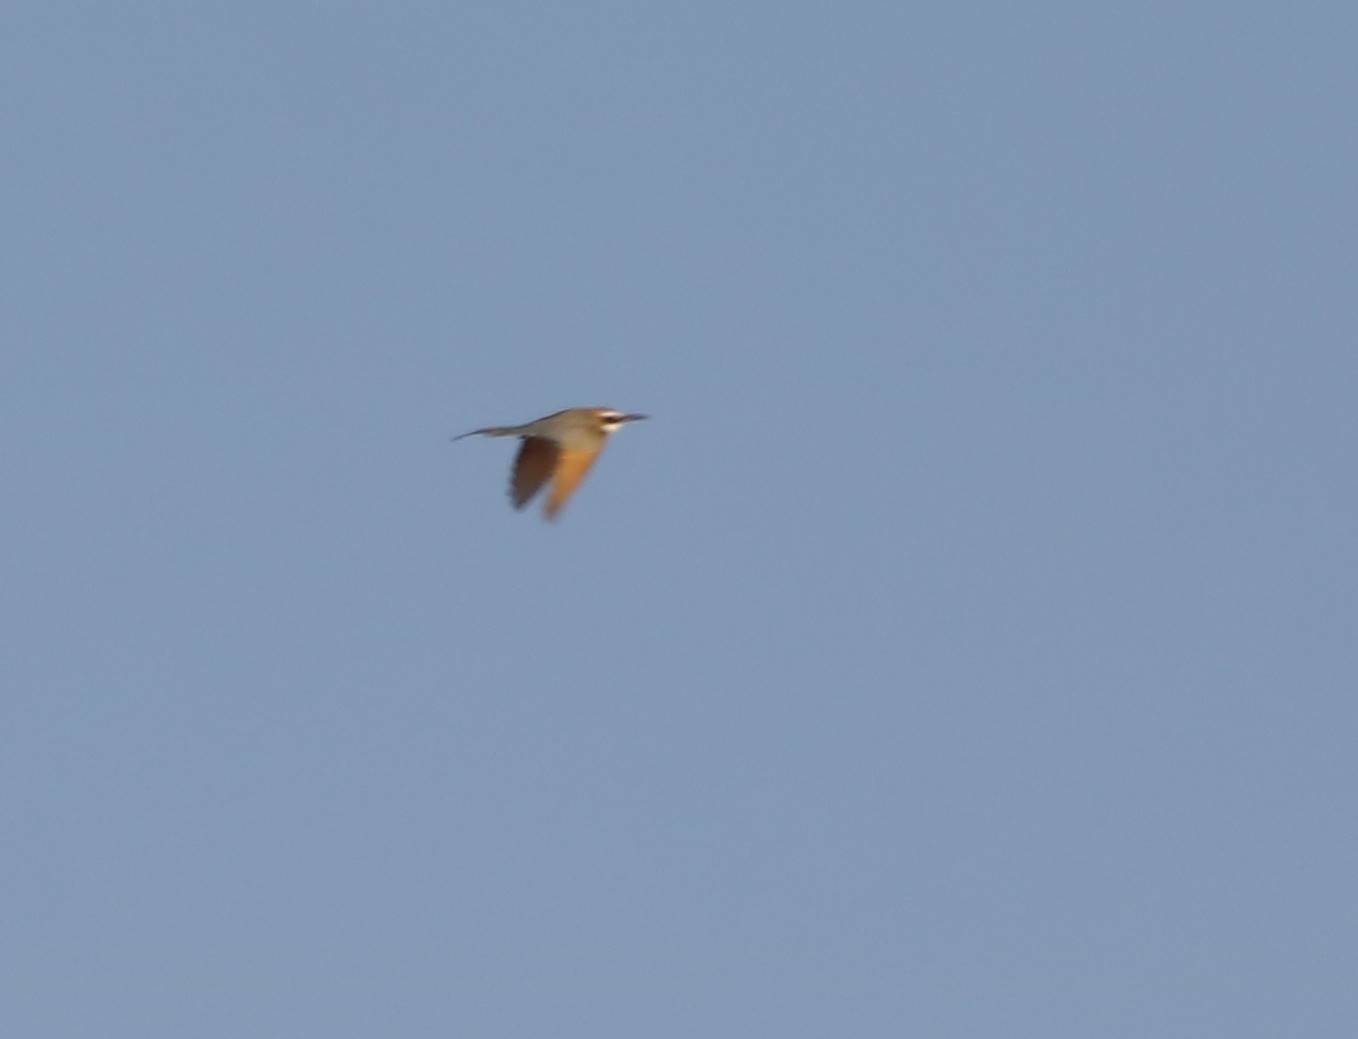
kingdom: Animalia
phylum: Chordata
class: Aves
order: Coraciiformes
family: Meropidae
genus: Merops
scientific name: Merops albicollis
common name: White-throated bee-eater
